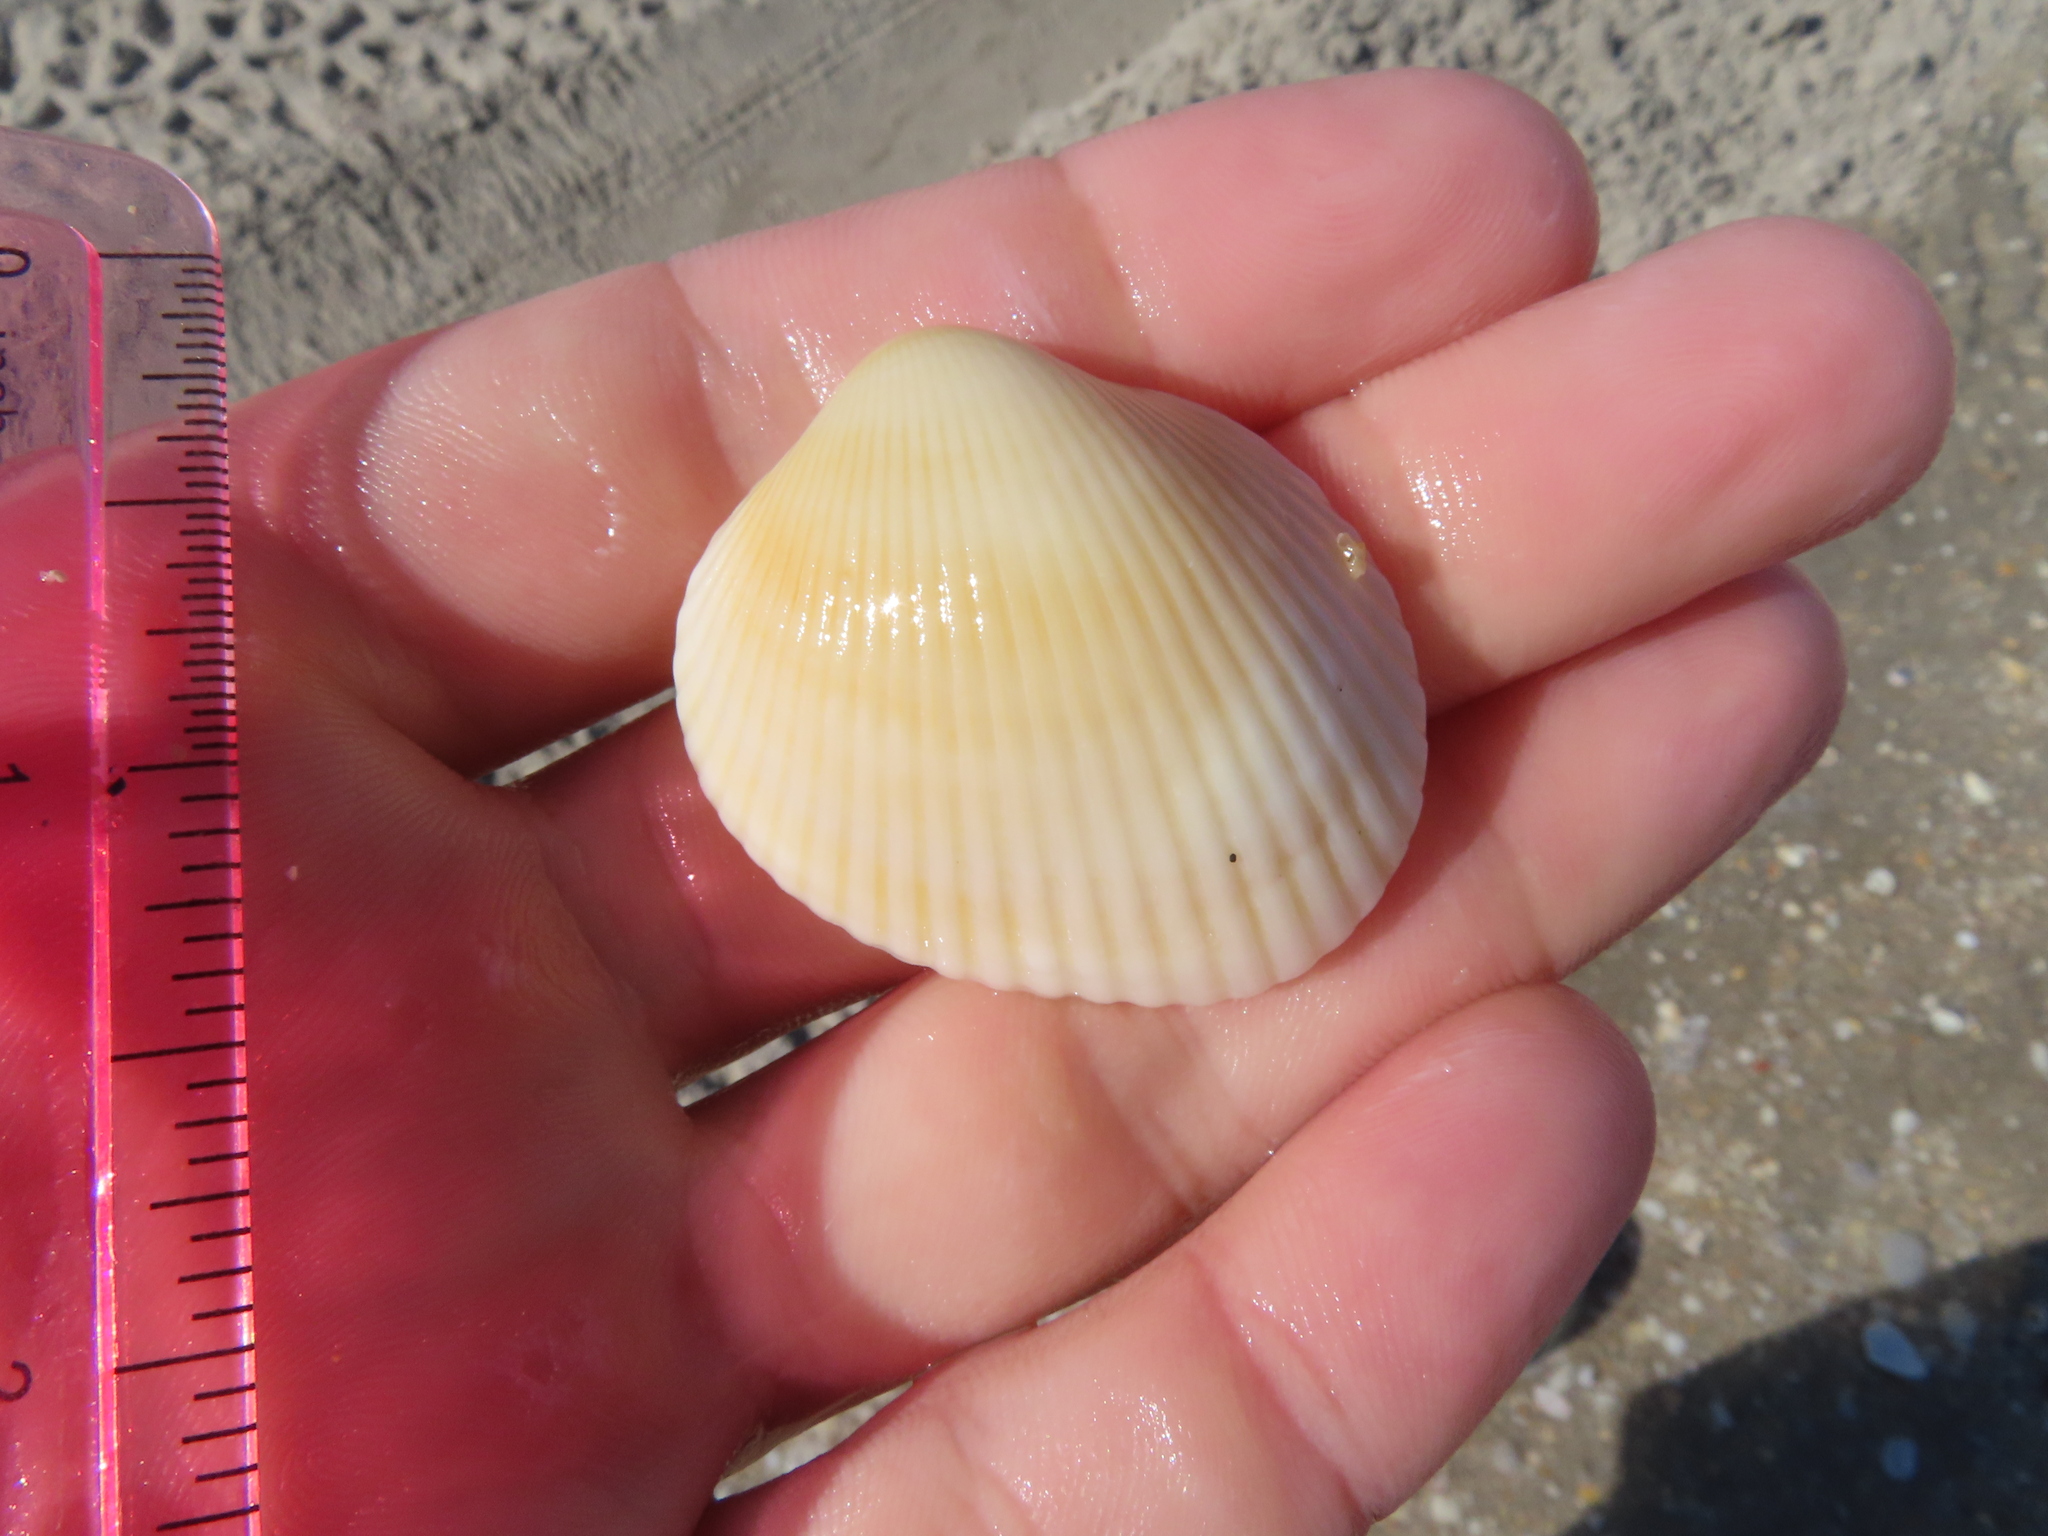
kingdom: Animalia
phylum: Mollusca
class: Bivalvia
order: Arcida
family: Arcidae
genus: Lunarca
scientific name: Lunarca ovalis
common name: Blood ark
